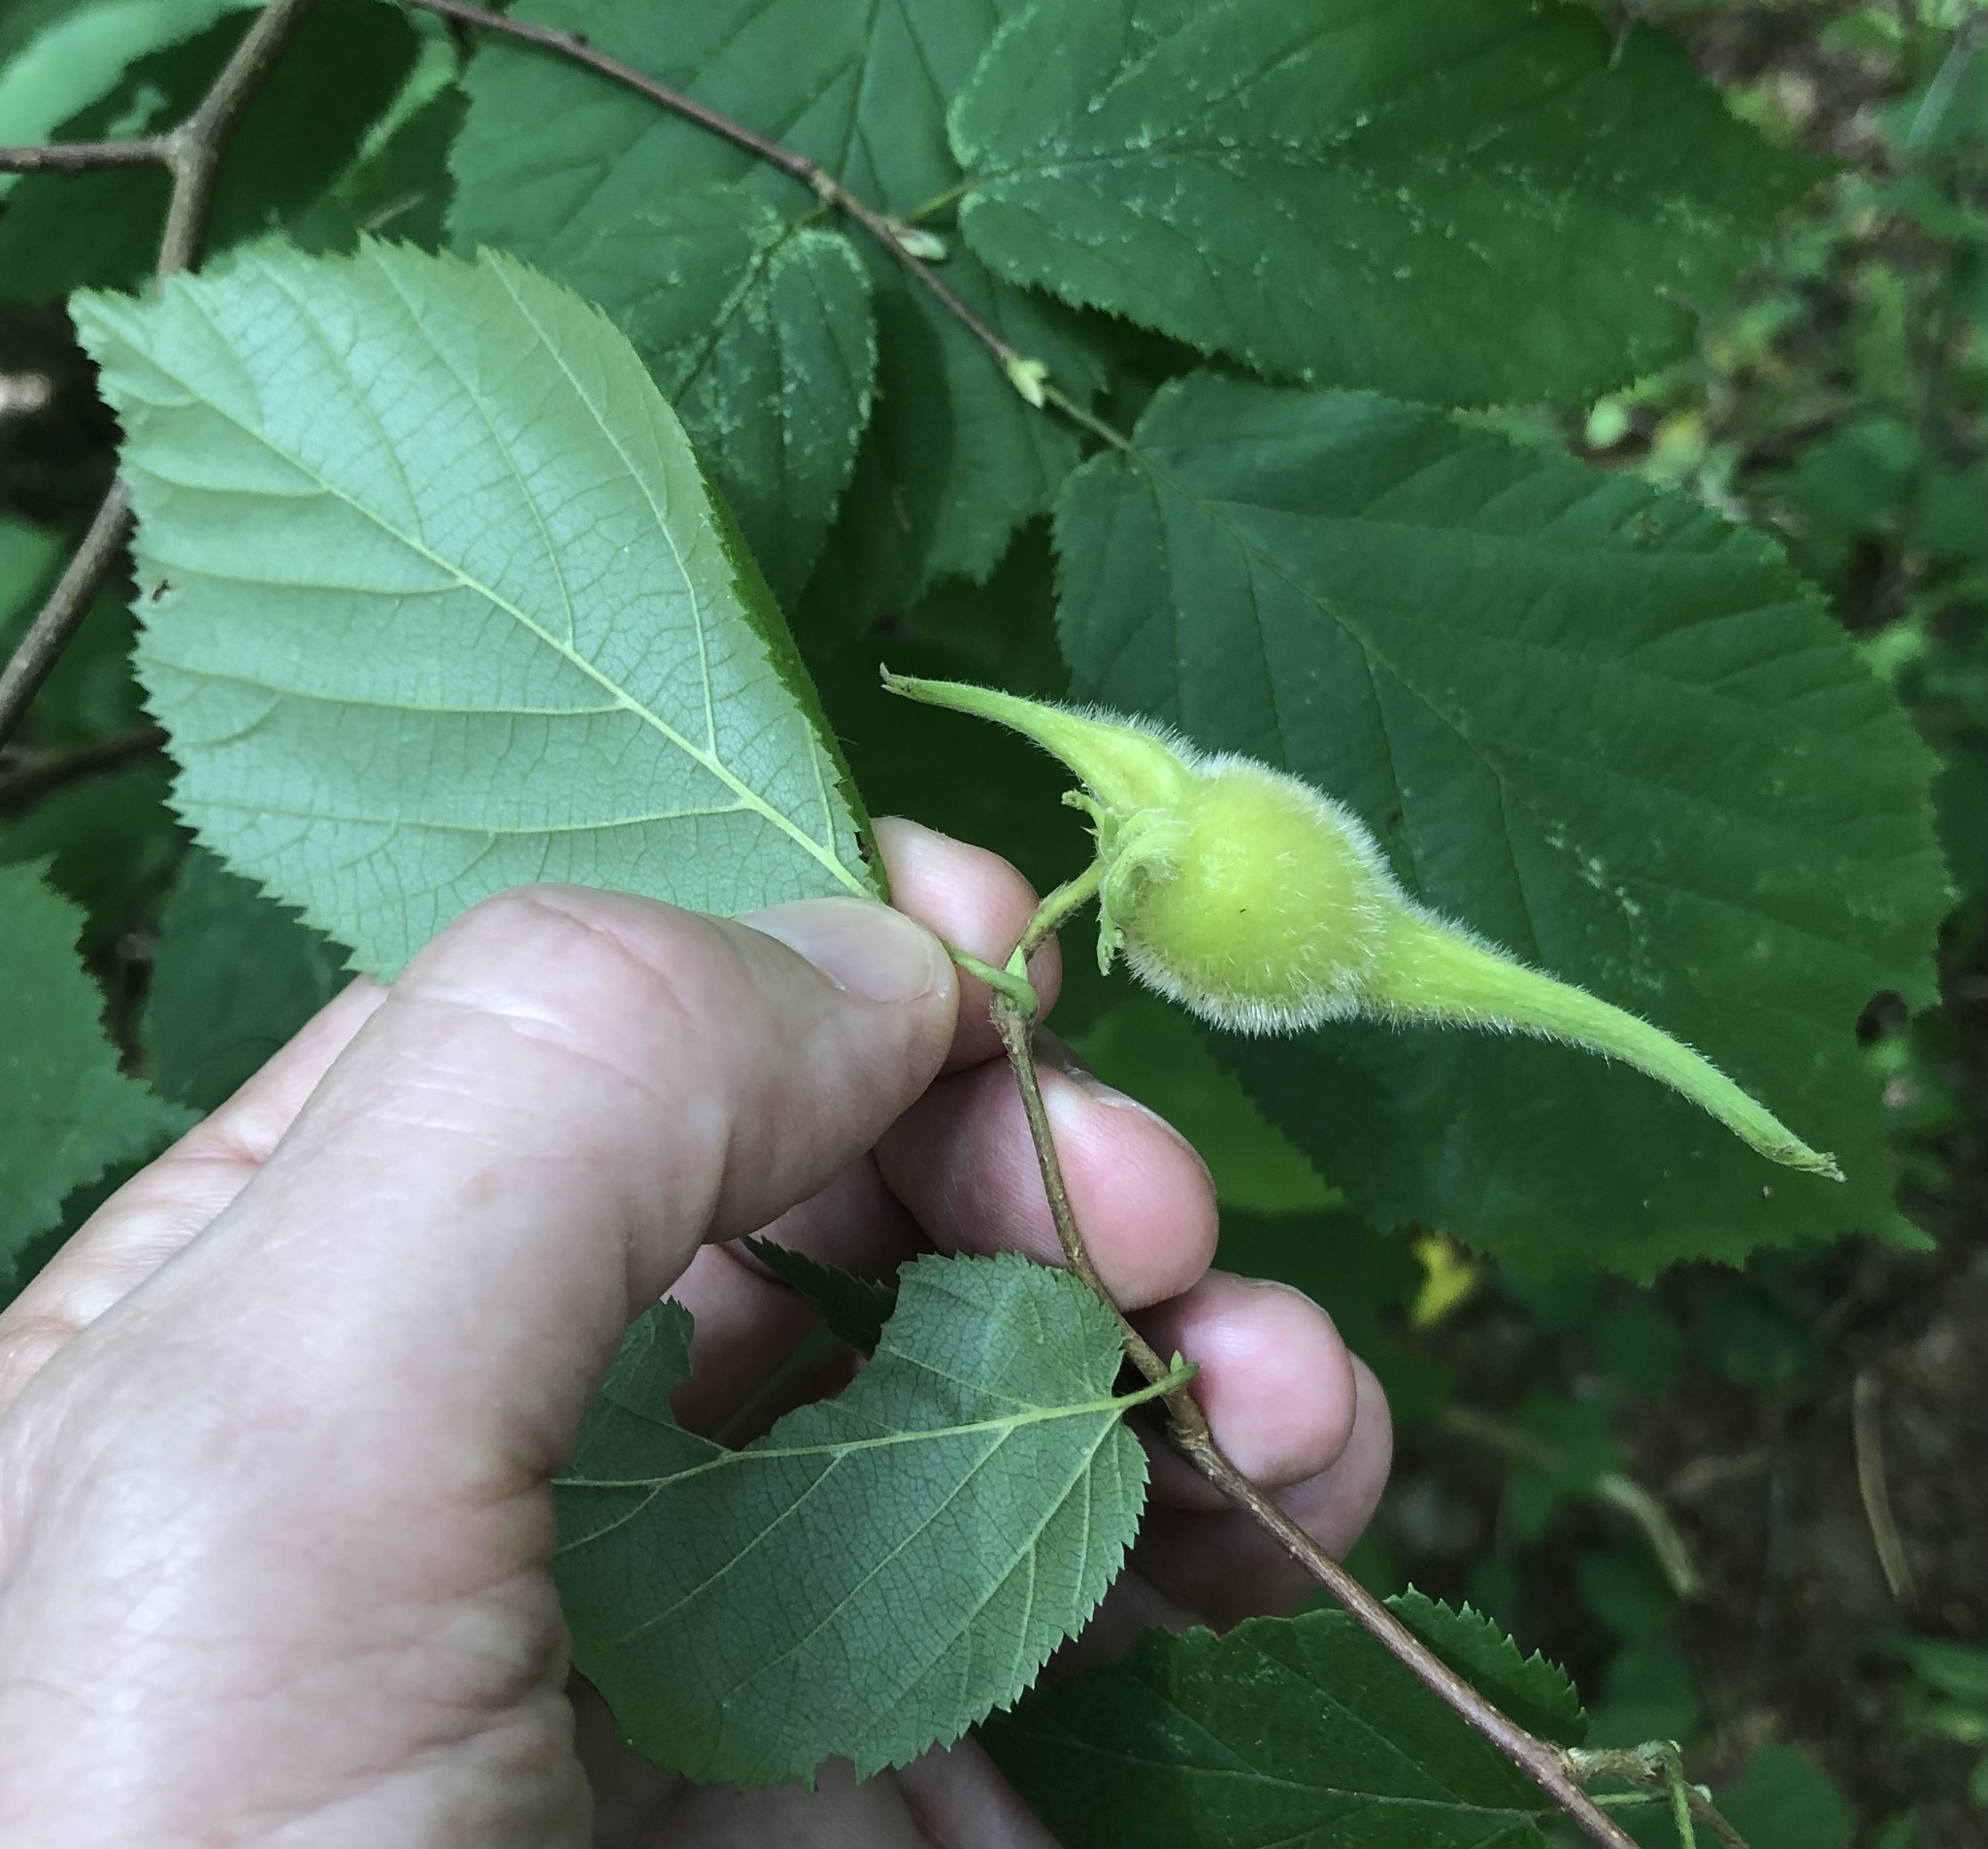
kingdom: Plantae
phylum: Tracheophyta
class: Magnoliopsida
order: Fagales
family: Betulaceae
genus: Corylus
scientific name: Corylus cornuta
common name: Beaked hazel
